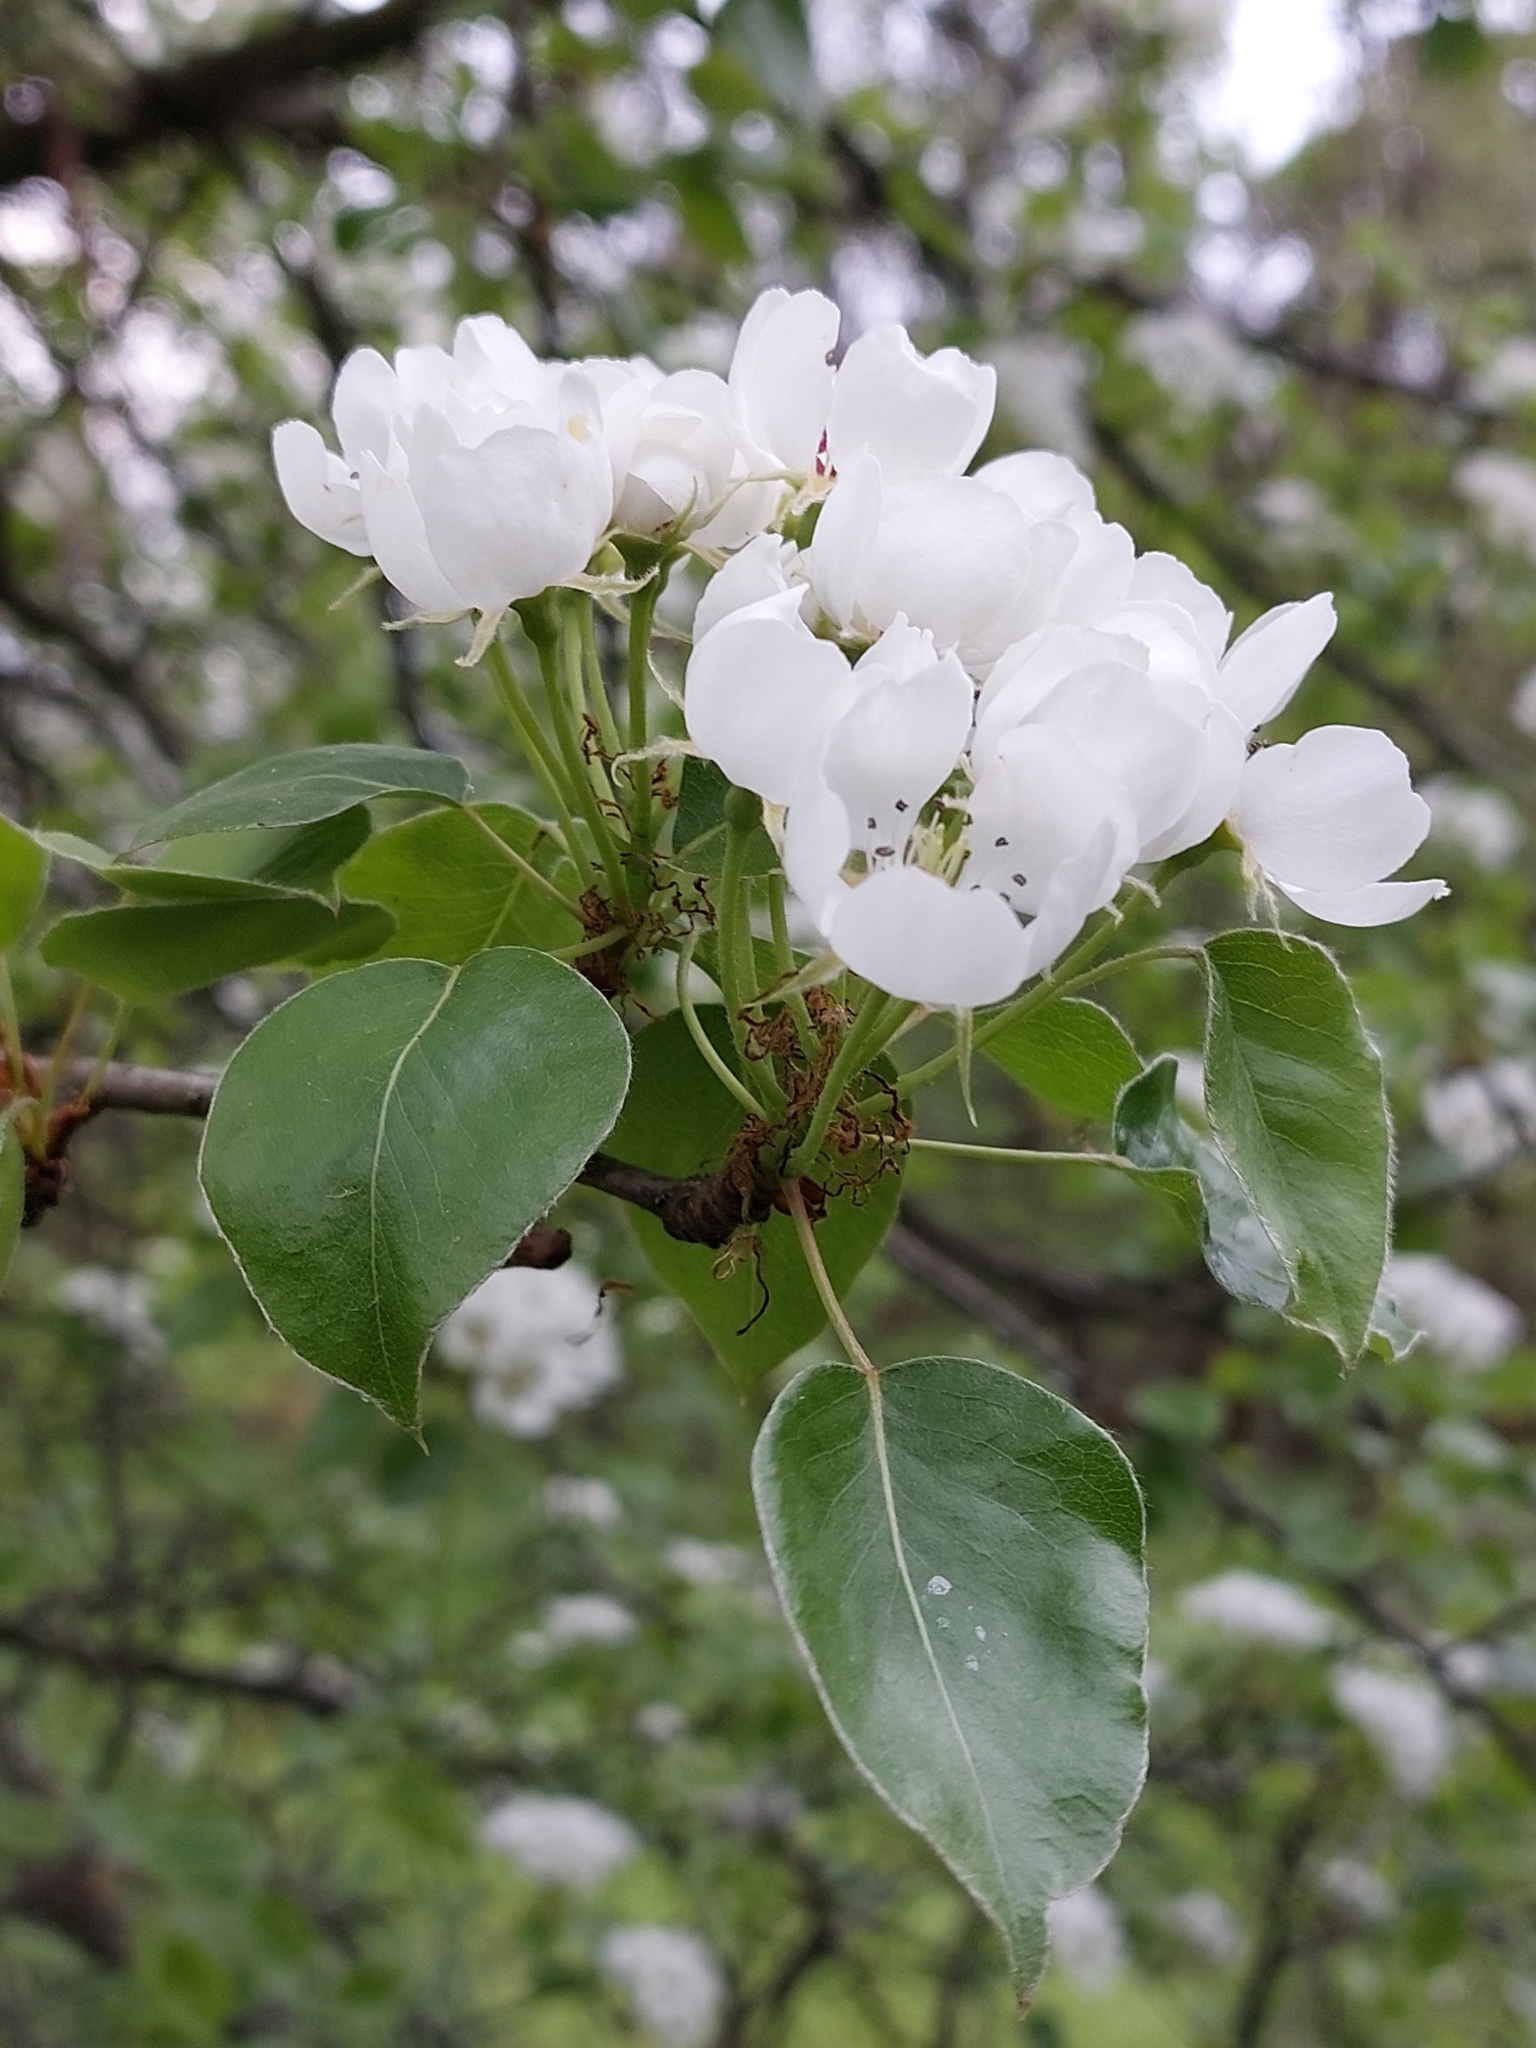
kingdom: Plantae
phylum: Tracheophyta
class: Magnoliopsida
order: Rosales
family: Rosaceae
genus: Pyrus
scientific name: Pyrus communis
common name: Pear
